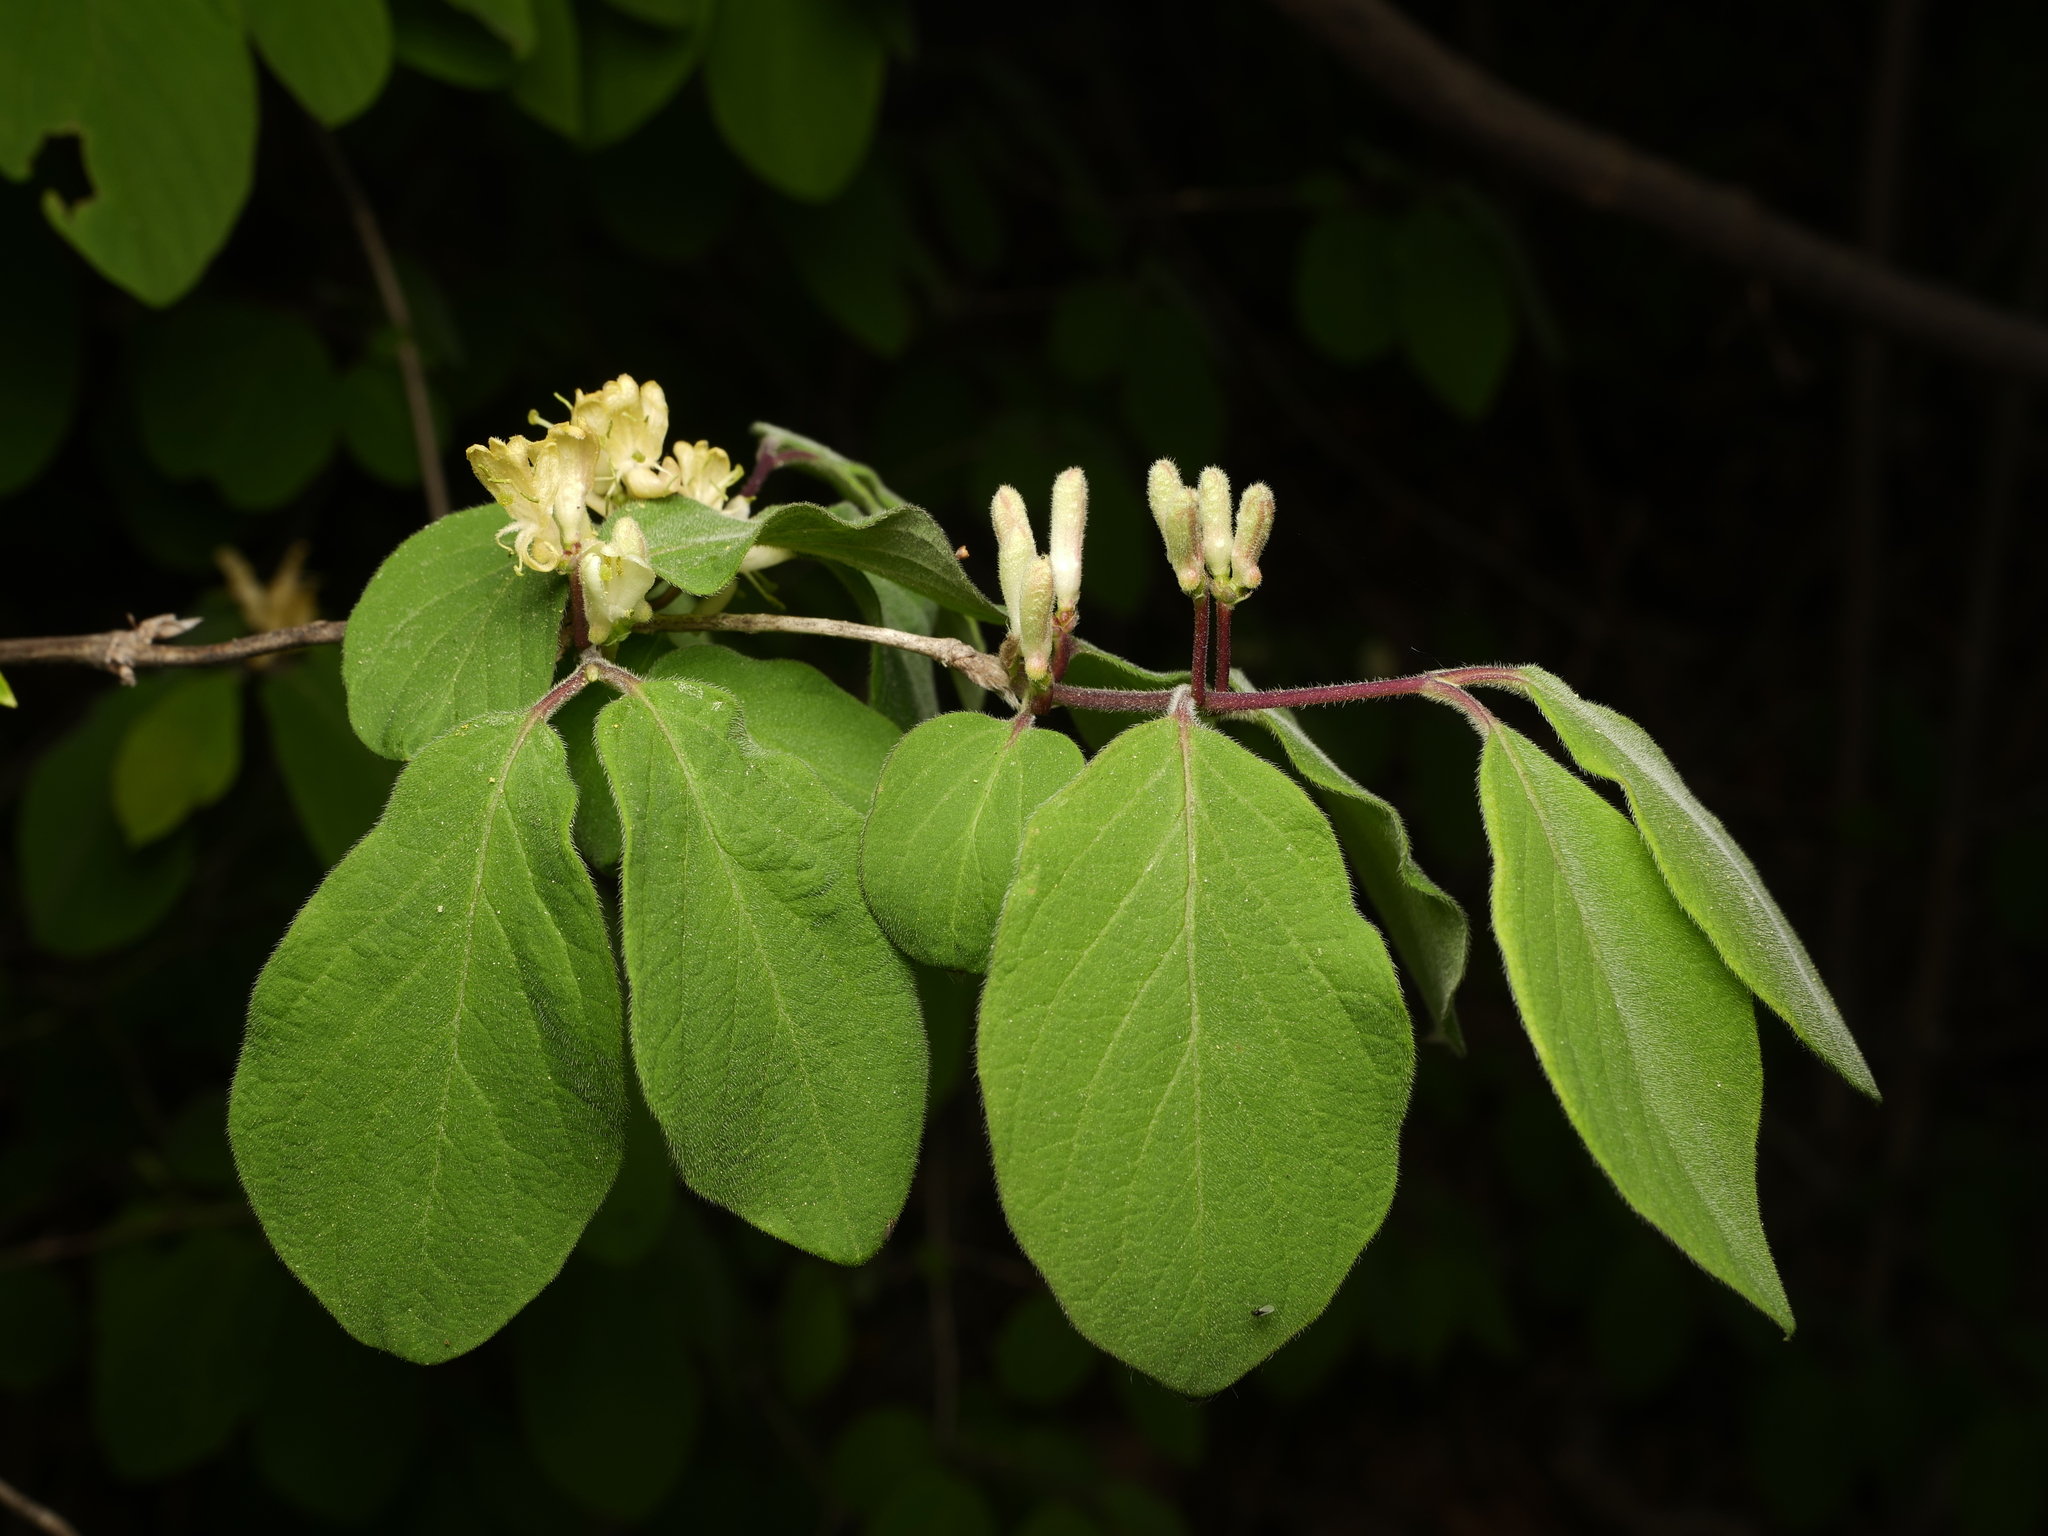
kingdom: Plantae
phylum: Tracheophyta
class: Magnoliopsida
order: Dipsacales
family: Caprifoliaceae
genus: Lonicera
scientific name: Lonicera xylosteum
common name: Fly honeysuckle
